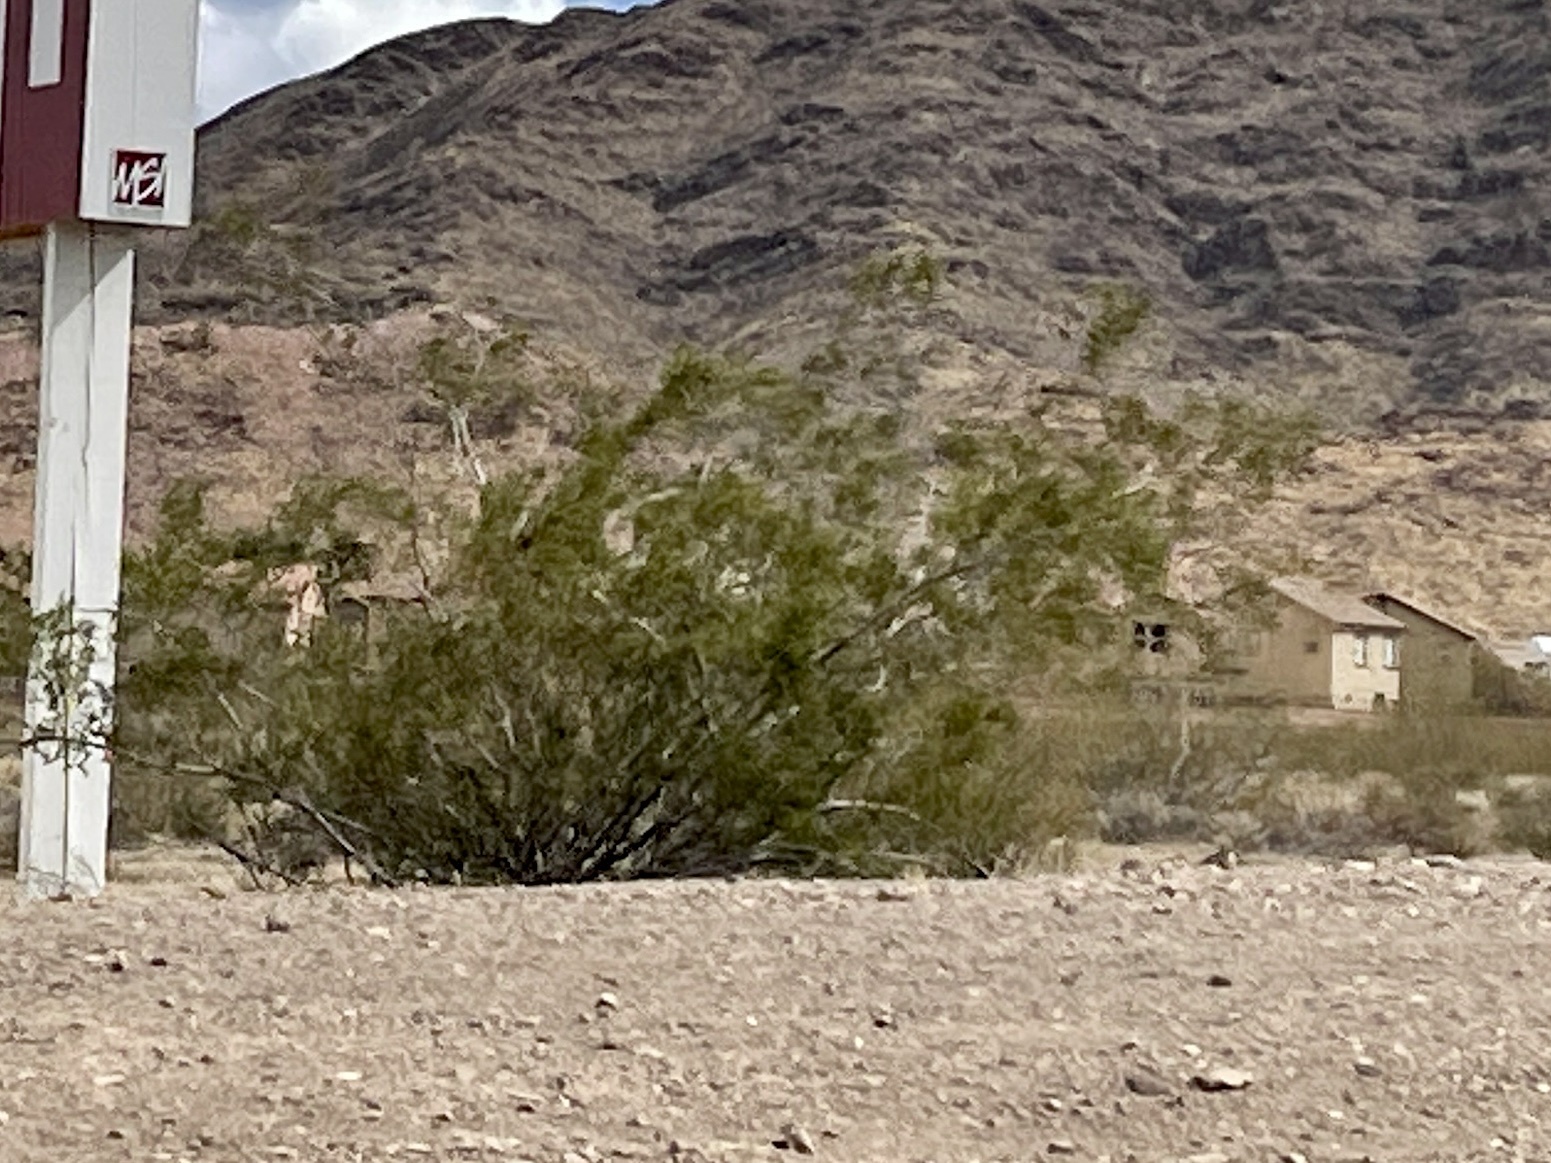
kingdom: Plantae
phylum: Tracheophyta
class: Magnoliopsida
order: Zygophyllales
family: Zygophyllaceae
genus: Larrea
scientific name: Larrea tridentata
